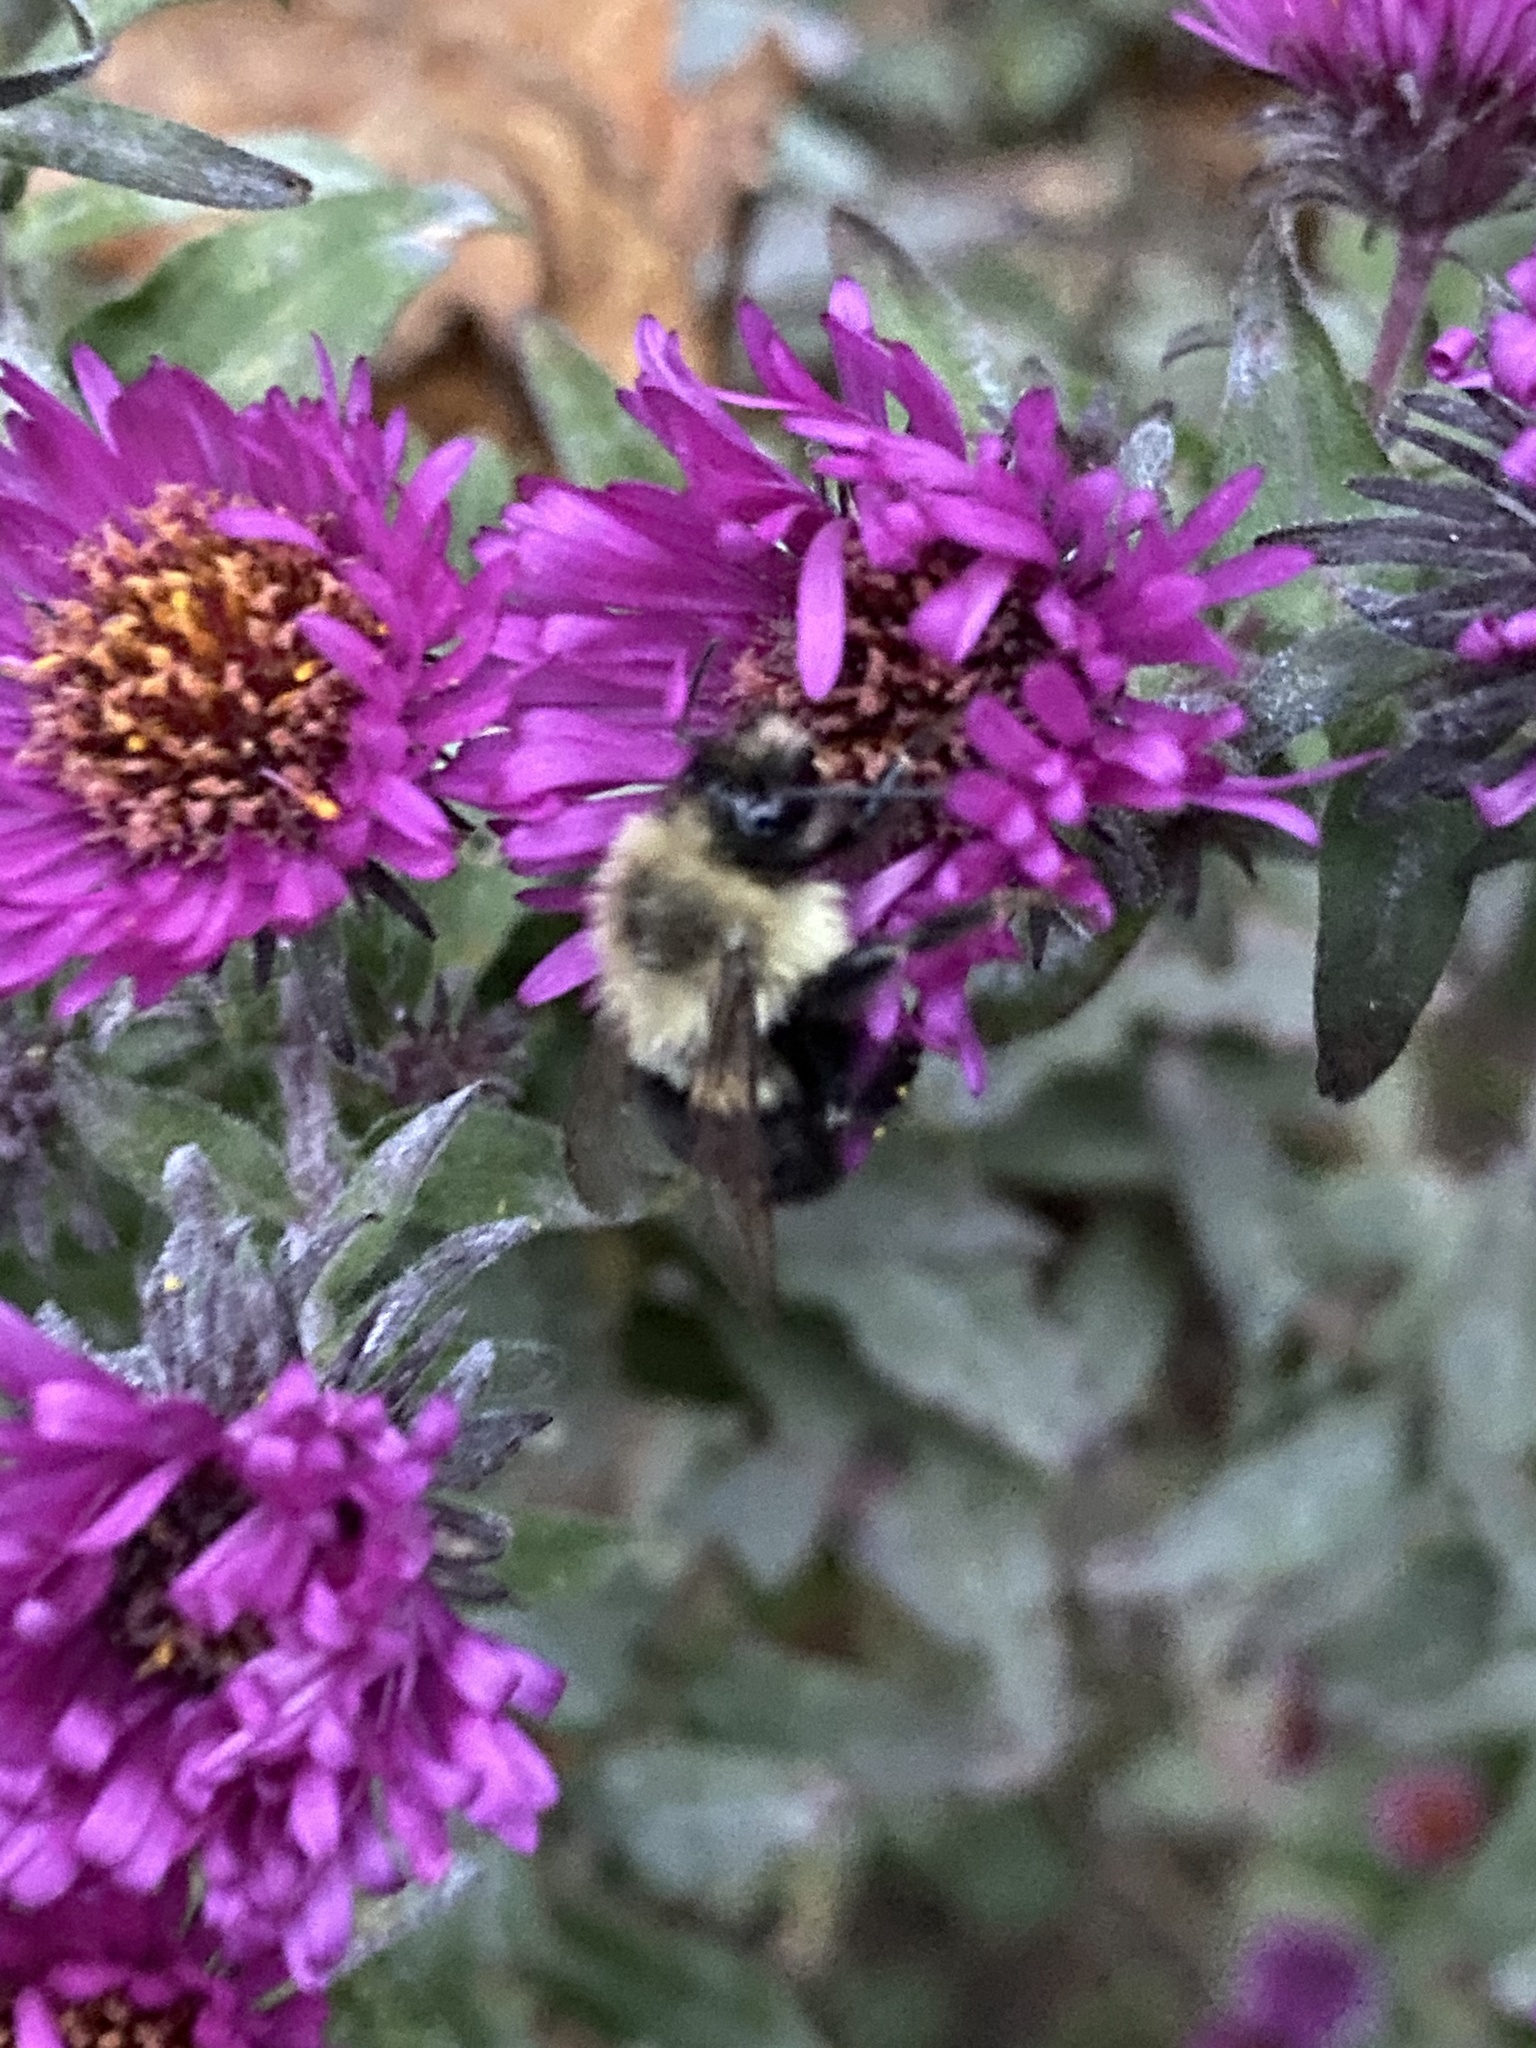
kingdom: Animalia
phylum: Arthropoda
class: Insecta
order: Hymenoptera
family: Apidae
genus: Bombus
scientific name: Bombus impatiens
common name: Common eastern bumble bee
